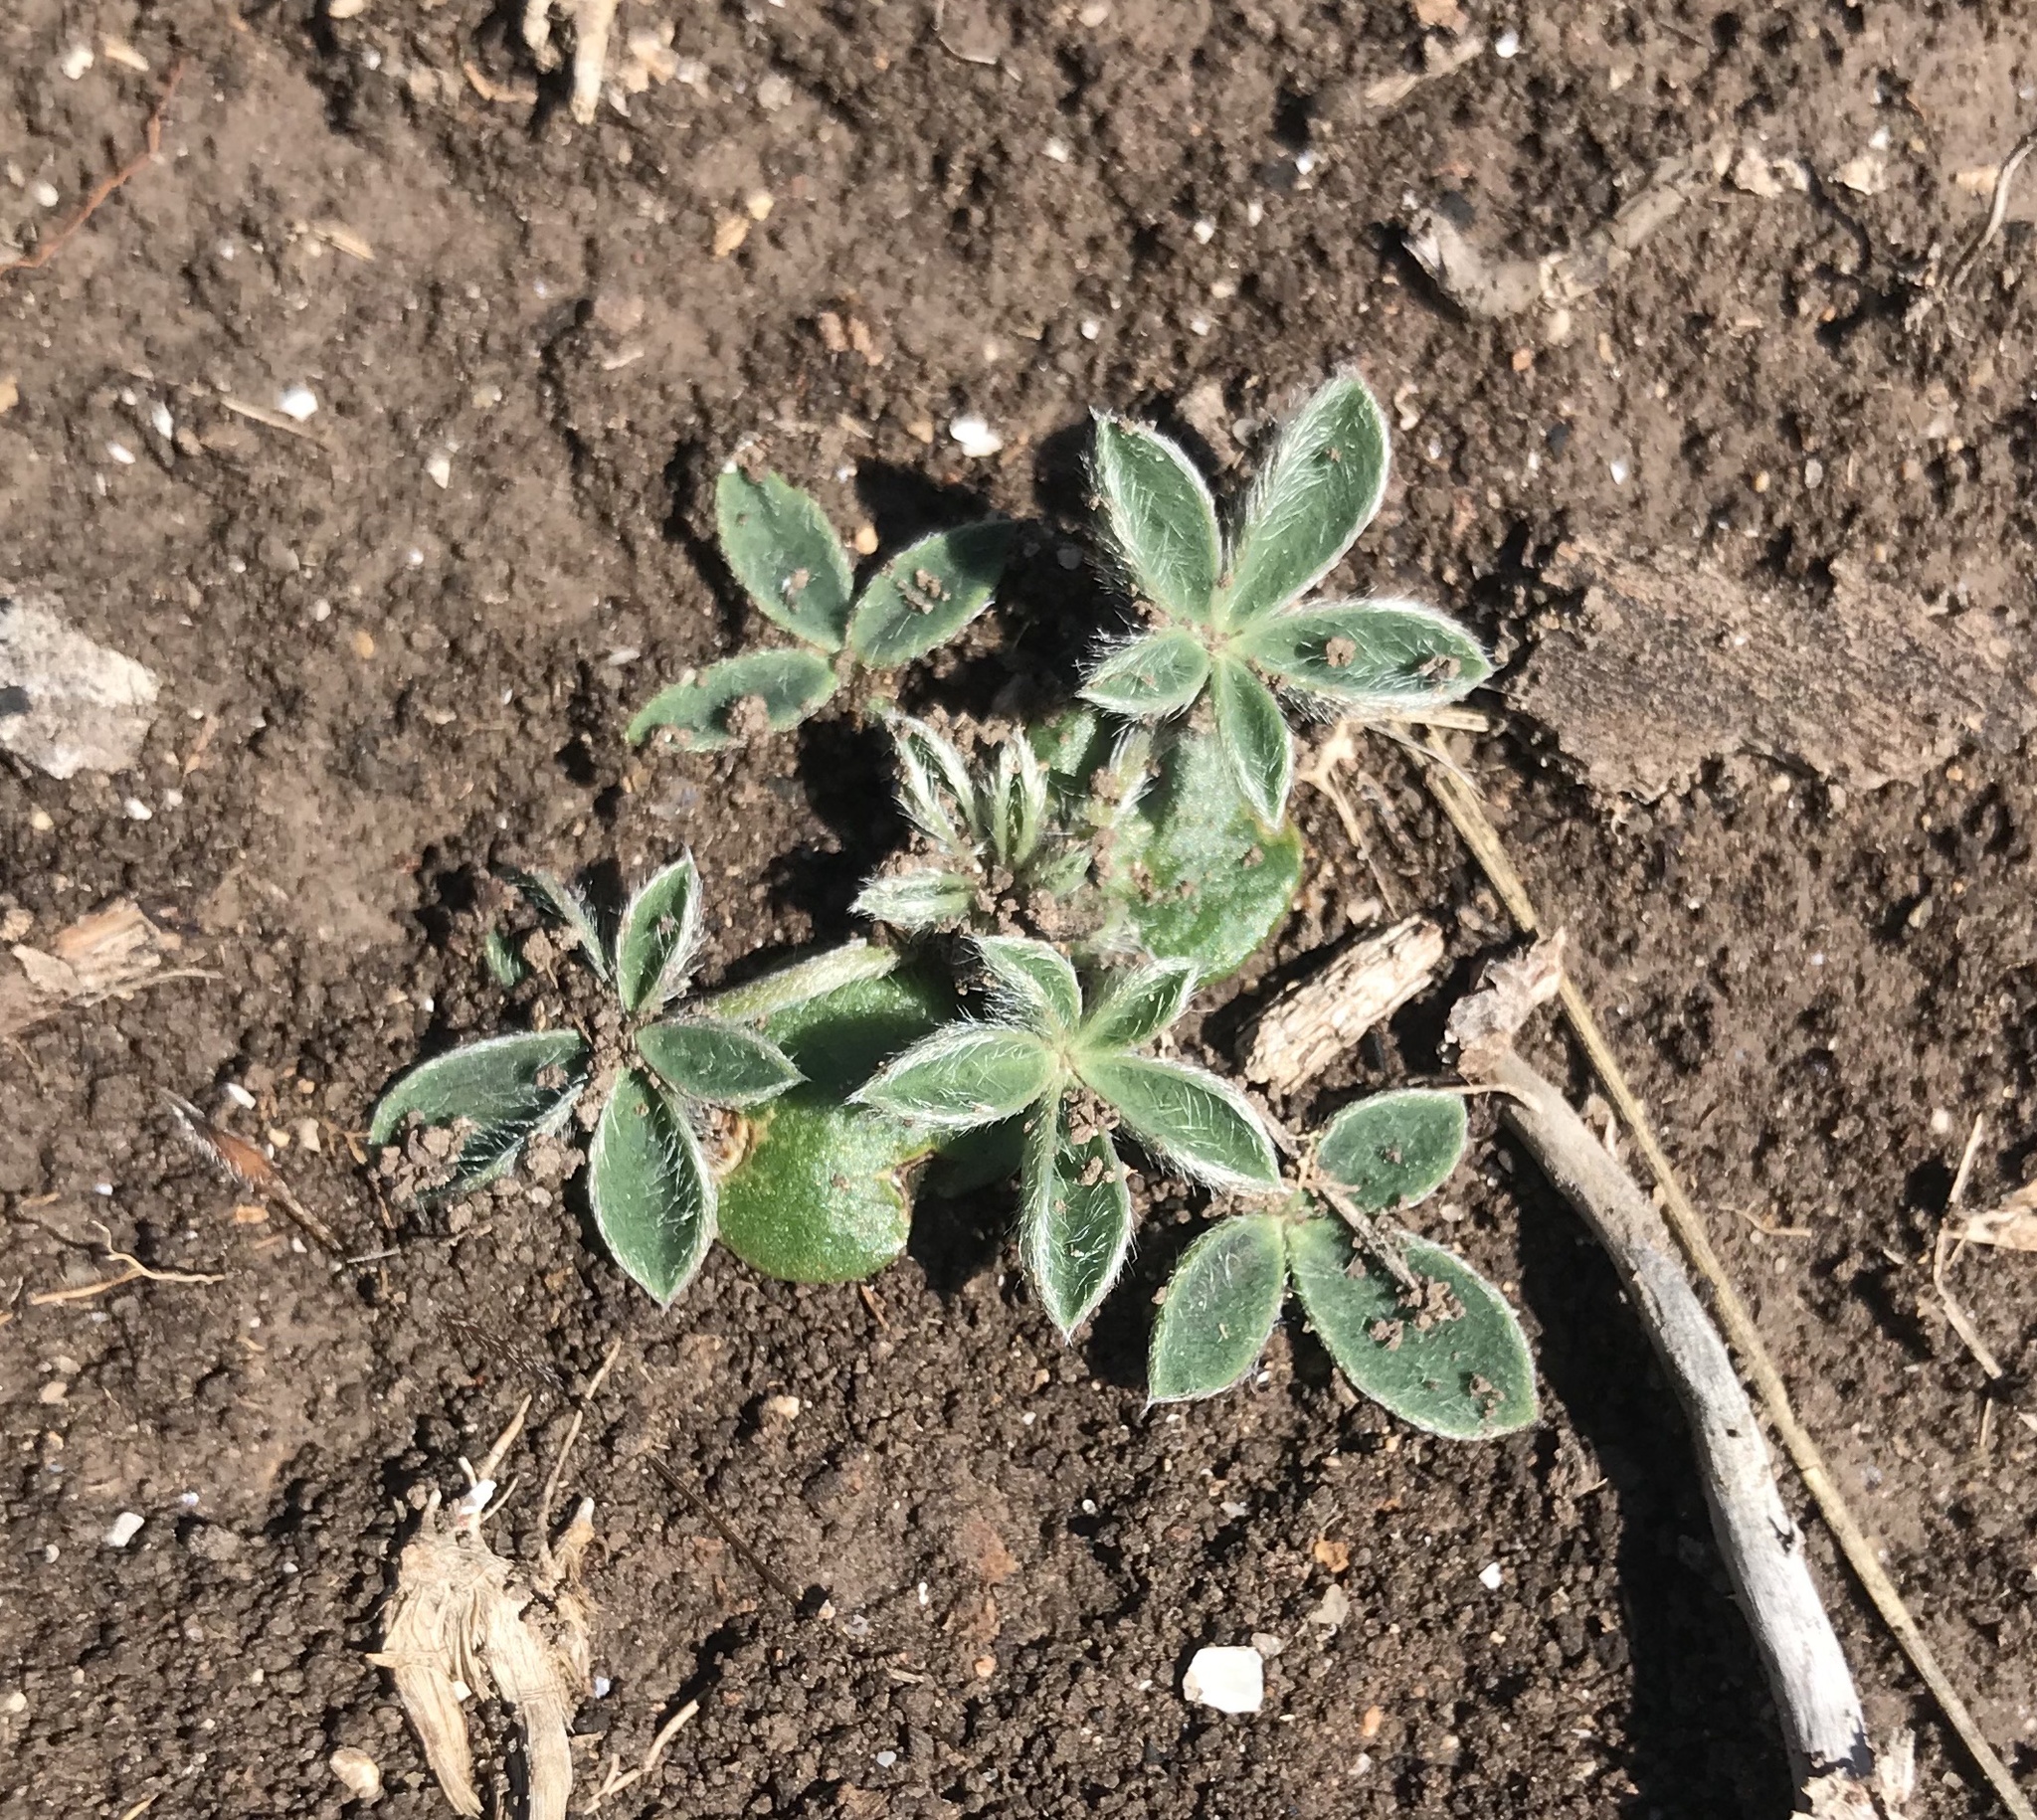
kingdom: Plantae
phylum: Tracheophyta
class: Magnoliopsida
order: Fabales
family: Fabaceae
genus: Lupinus
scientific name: Lupinus texensis
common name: Texas bluebonnet
